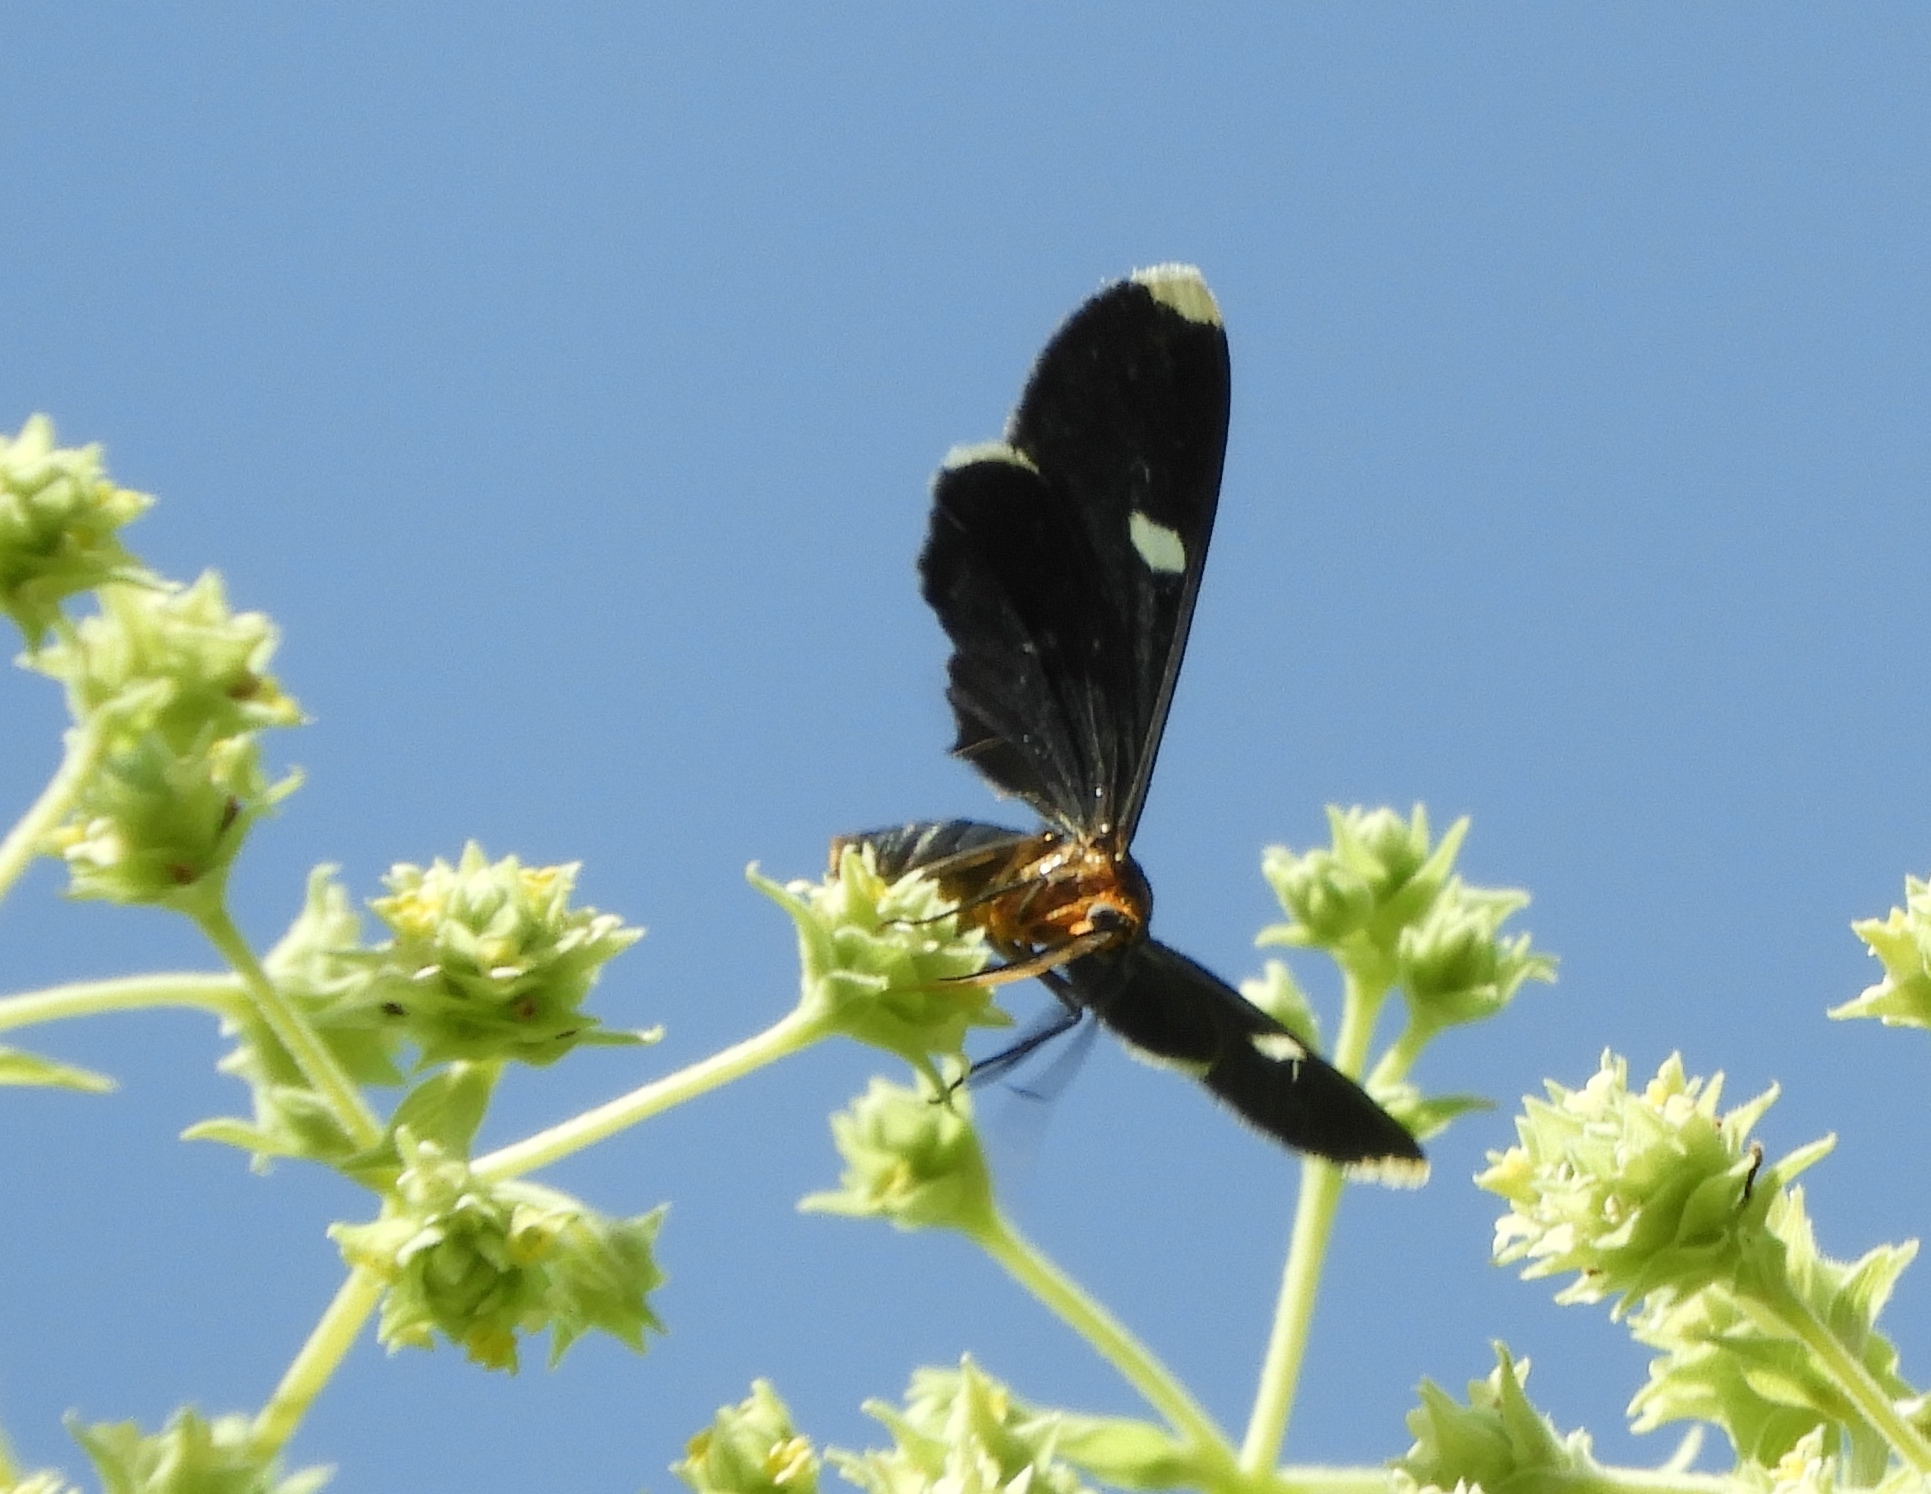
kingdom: Animalia
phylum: Arthropoda
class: Insecta
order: Lepidoptera
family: Geometridae
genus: Melanchroia
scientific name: Melanchroia vazquezae
